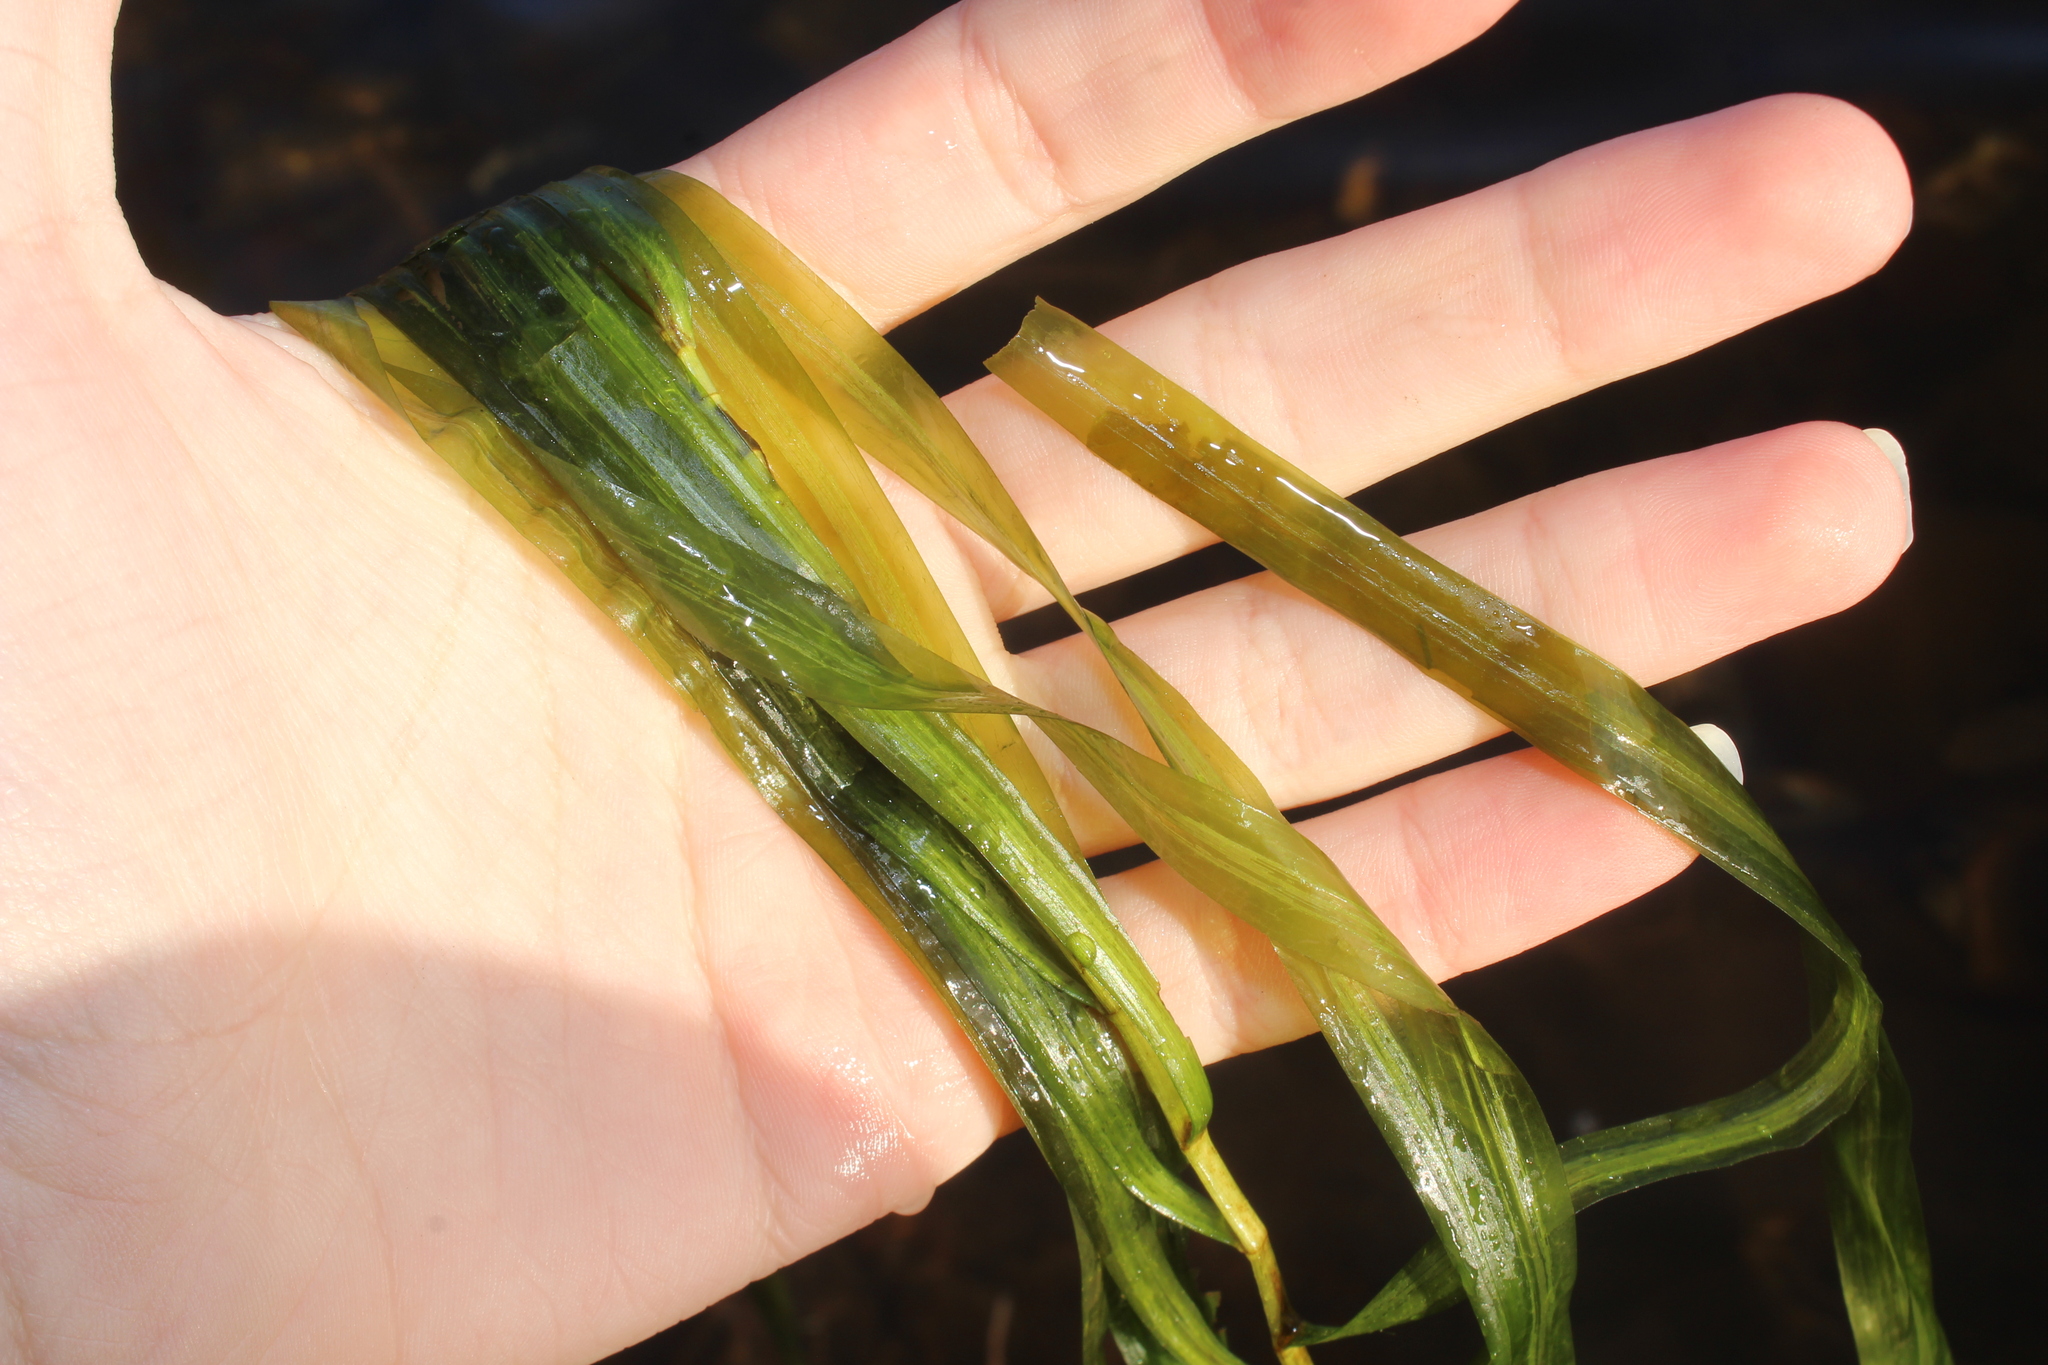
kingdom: Plantae
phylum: Tracheophyta
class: Liliopsida
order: Alismatales
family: Potamogetonaceae
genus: Potamogeton
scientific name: Potamogeton epihydrus
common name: American pondweed
